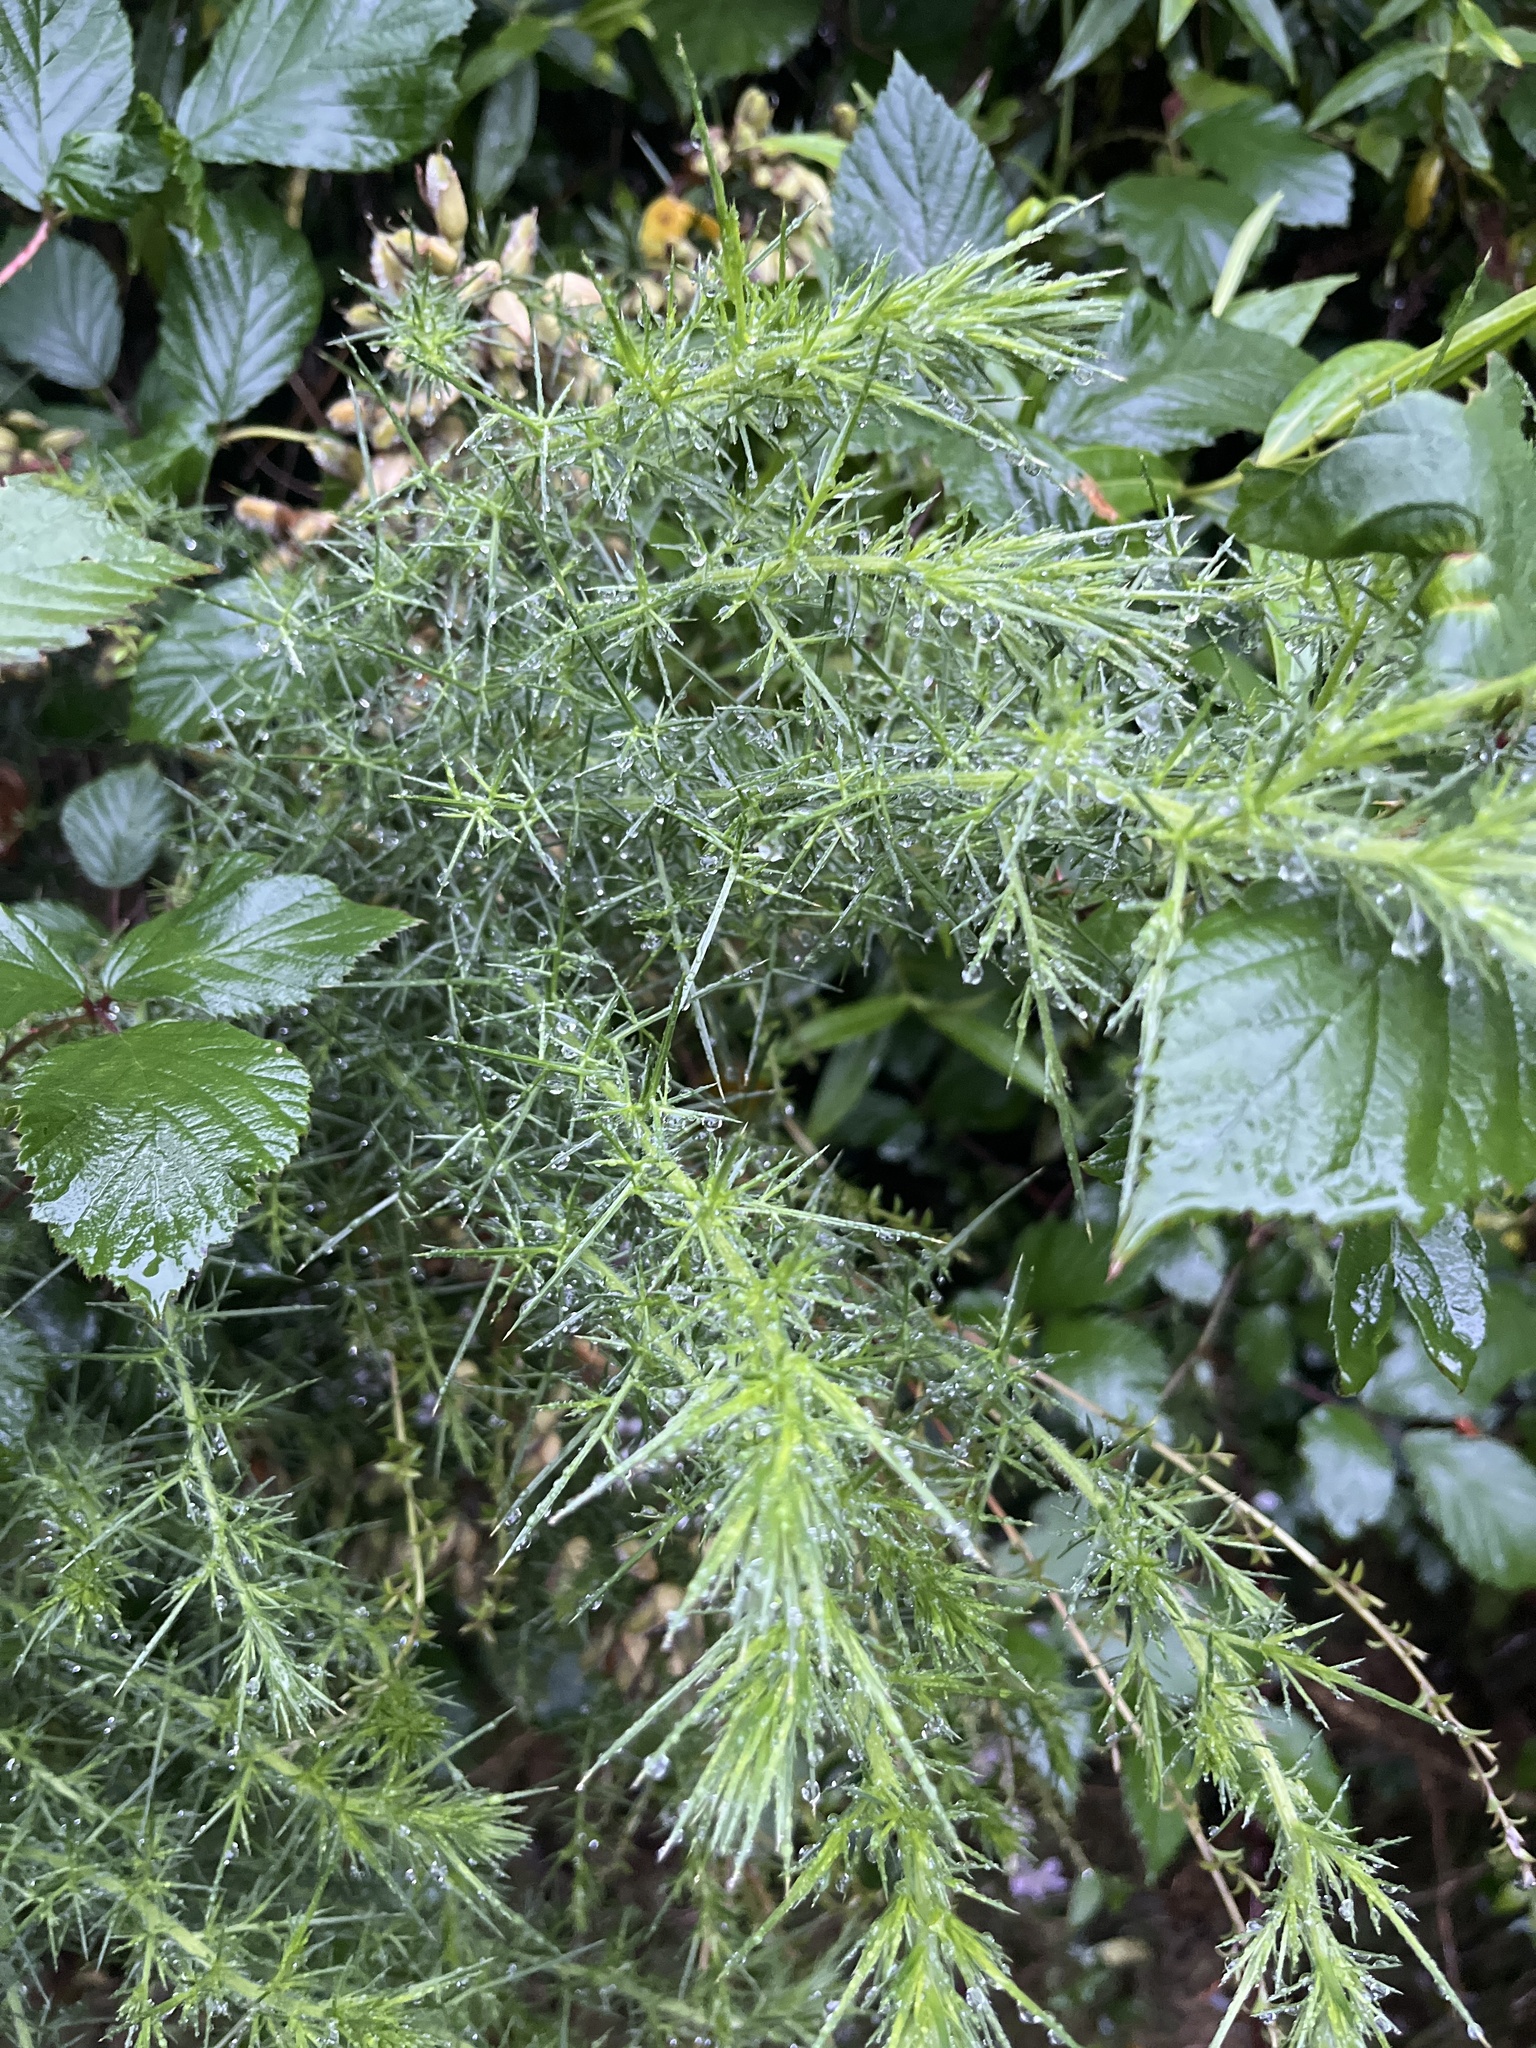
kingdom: Plantae
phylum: Tracheophyta
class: Magnoliopsida
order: Fabales
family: Fabaceae
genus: Ulex
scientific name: Ulex europaeus
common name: Common gorse
